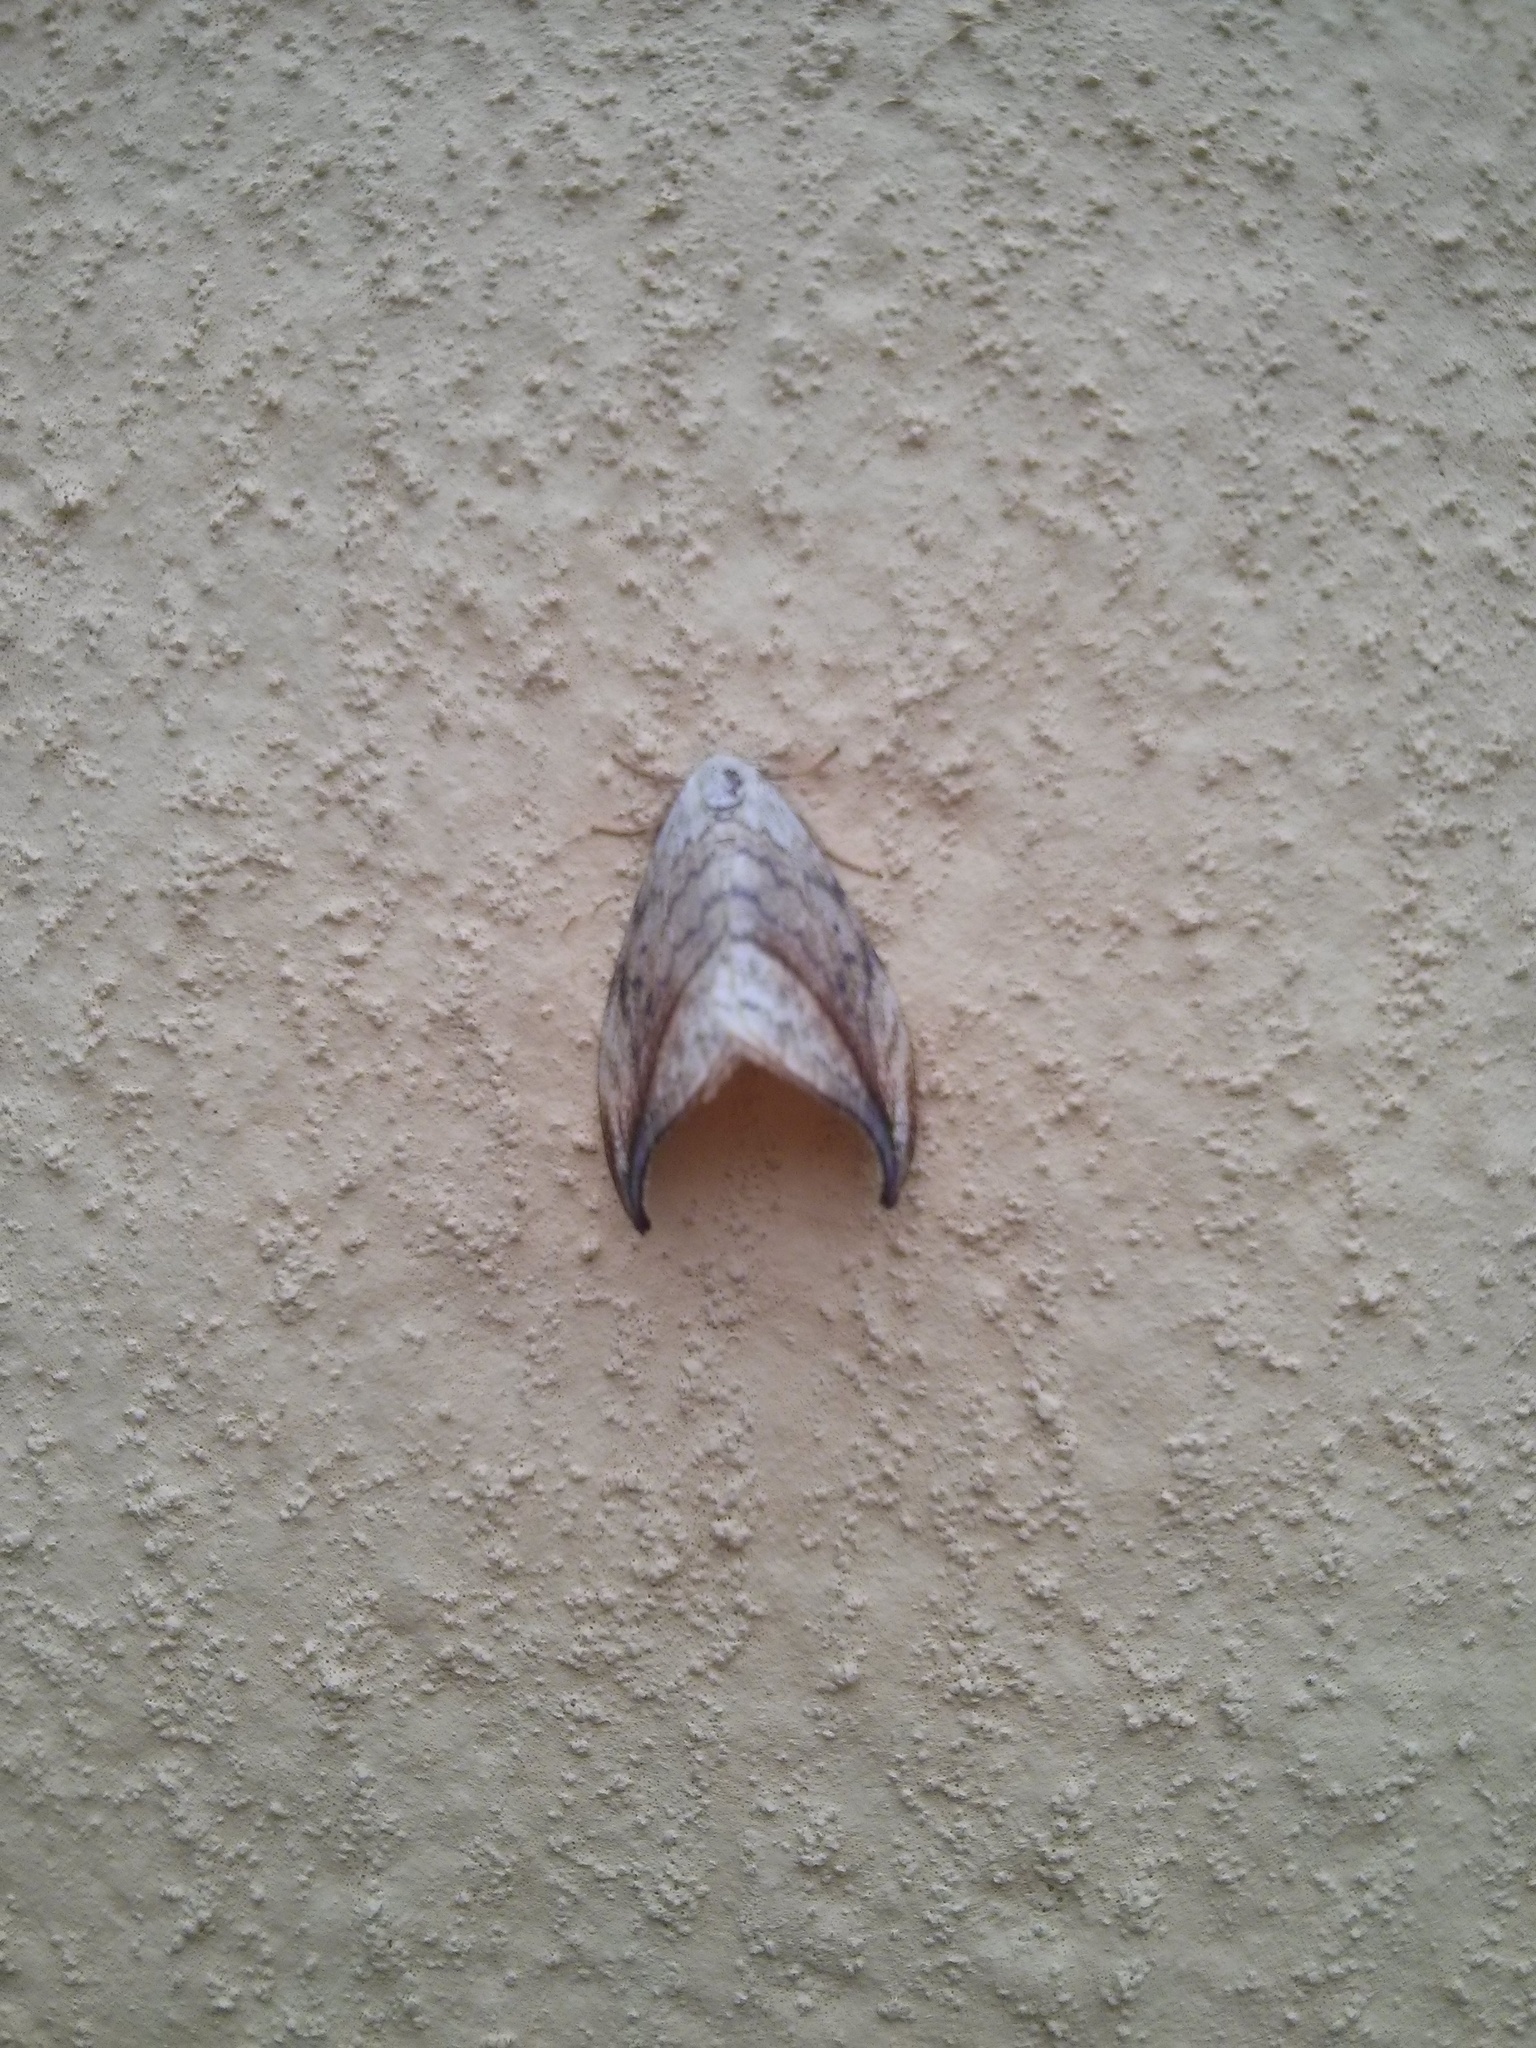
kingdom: Animalia
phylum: Arthropoda
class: Insecta
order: Lepidoptera
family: Drepanidae
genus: Drepana
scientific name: Drepana arcuata
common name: Arched hooktip moth
